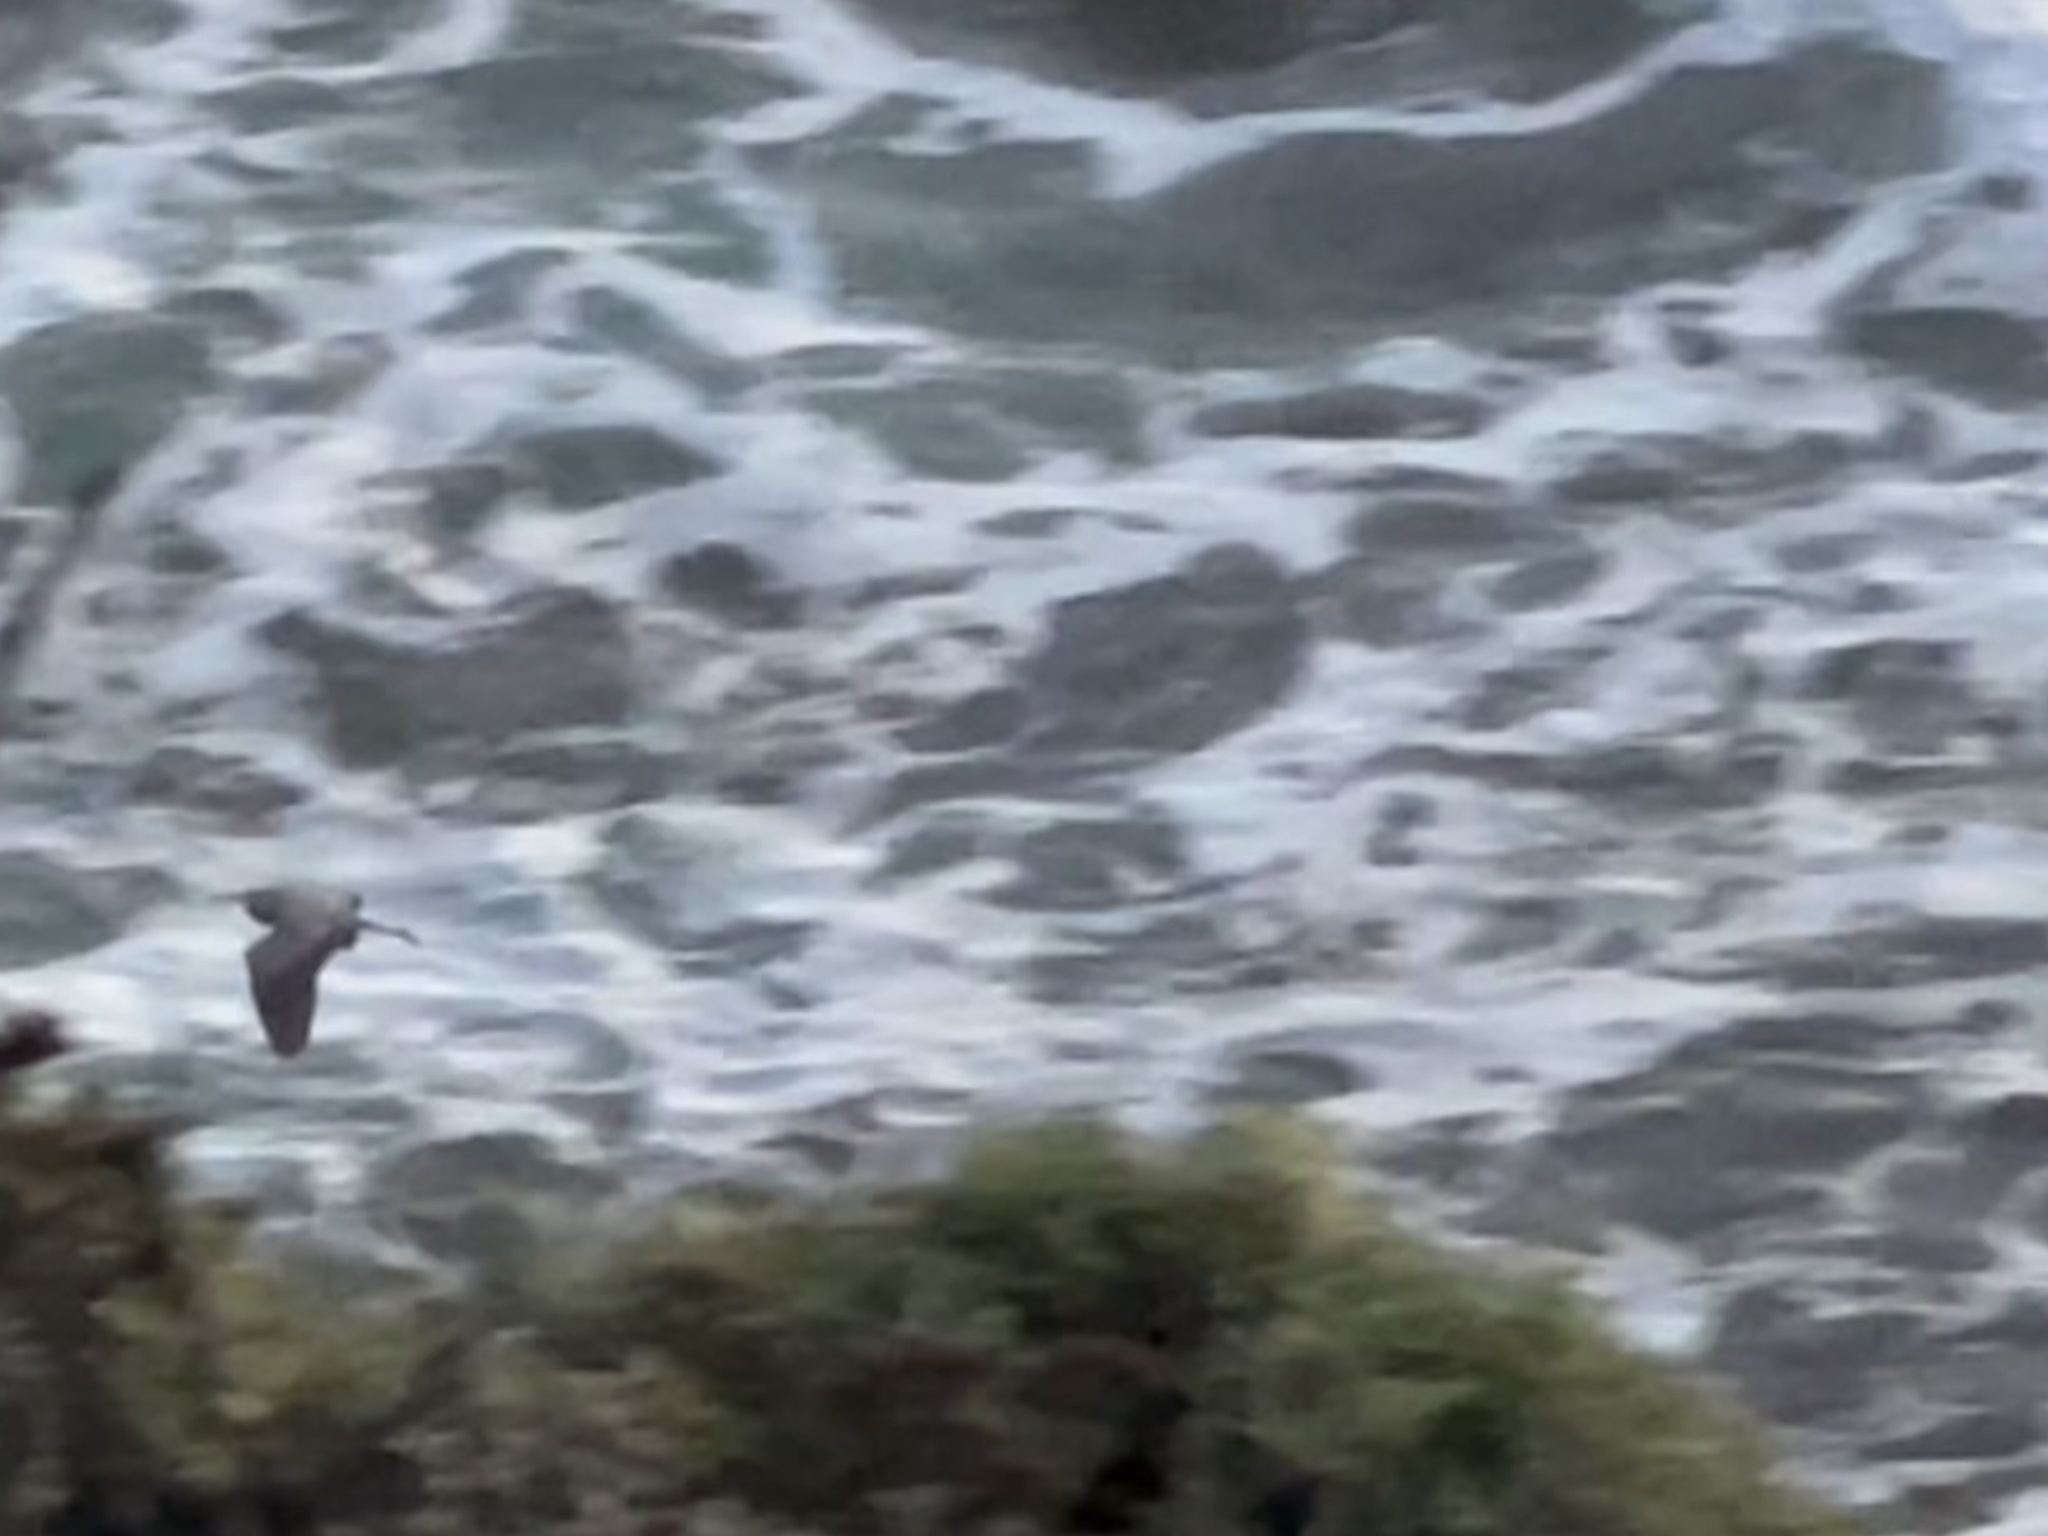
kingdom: Animalia
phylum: Chordata
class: Aves
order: Pelecaniformes
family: Ardeidae
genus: Ardea
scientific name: Ardea herodias
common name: Great blue heron
